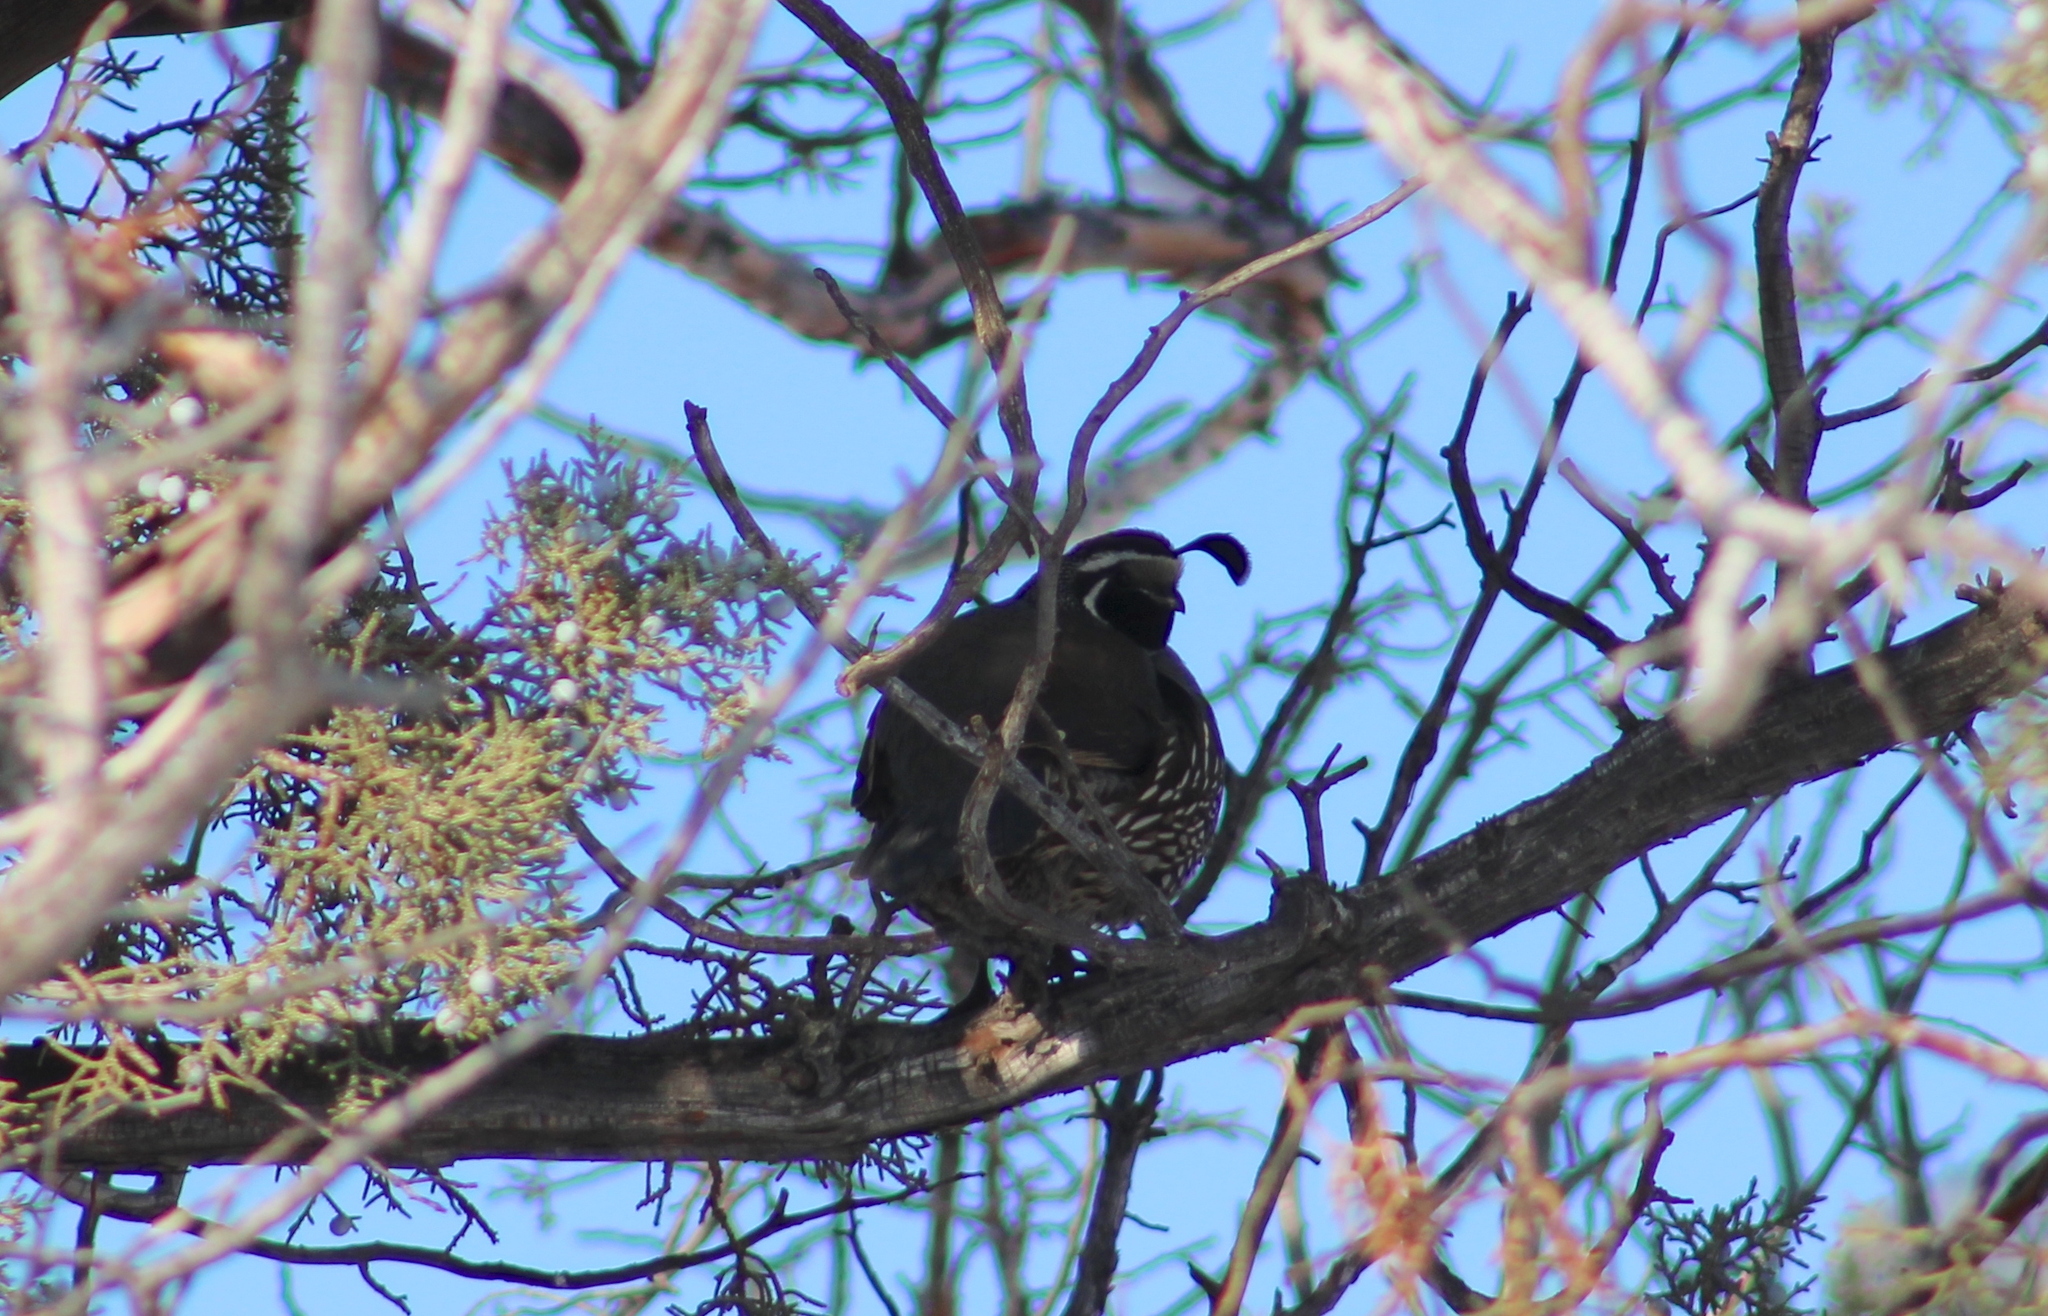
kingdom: Animalia
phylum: Chordata
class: Aves
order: Galliformes
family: Odontophoridae
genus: Callipepla
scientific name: Callipepla californica
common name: California quail
